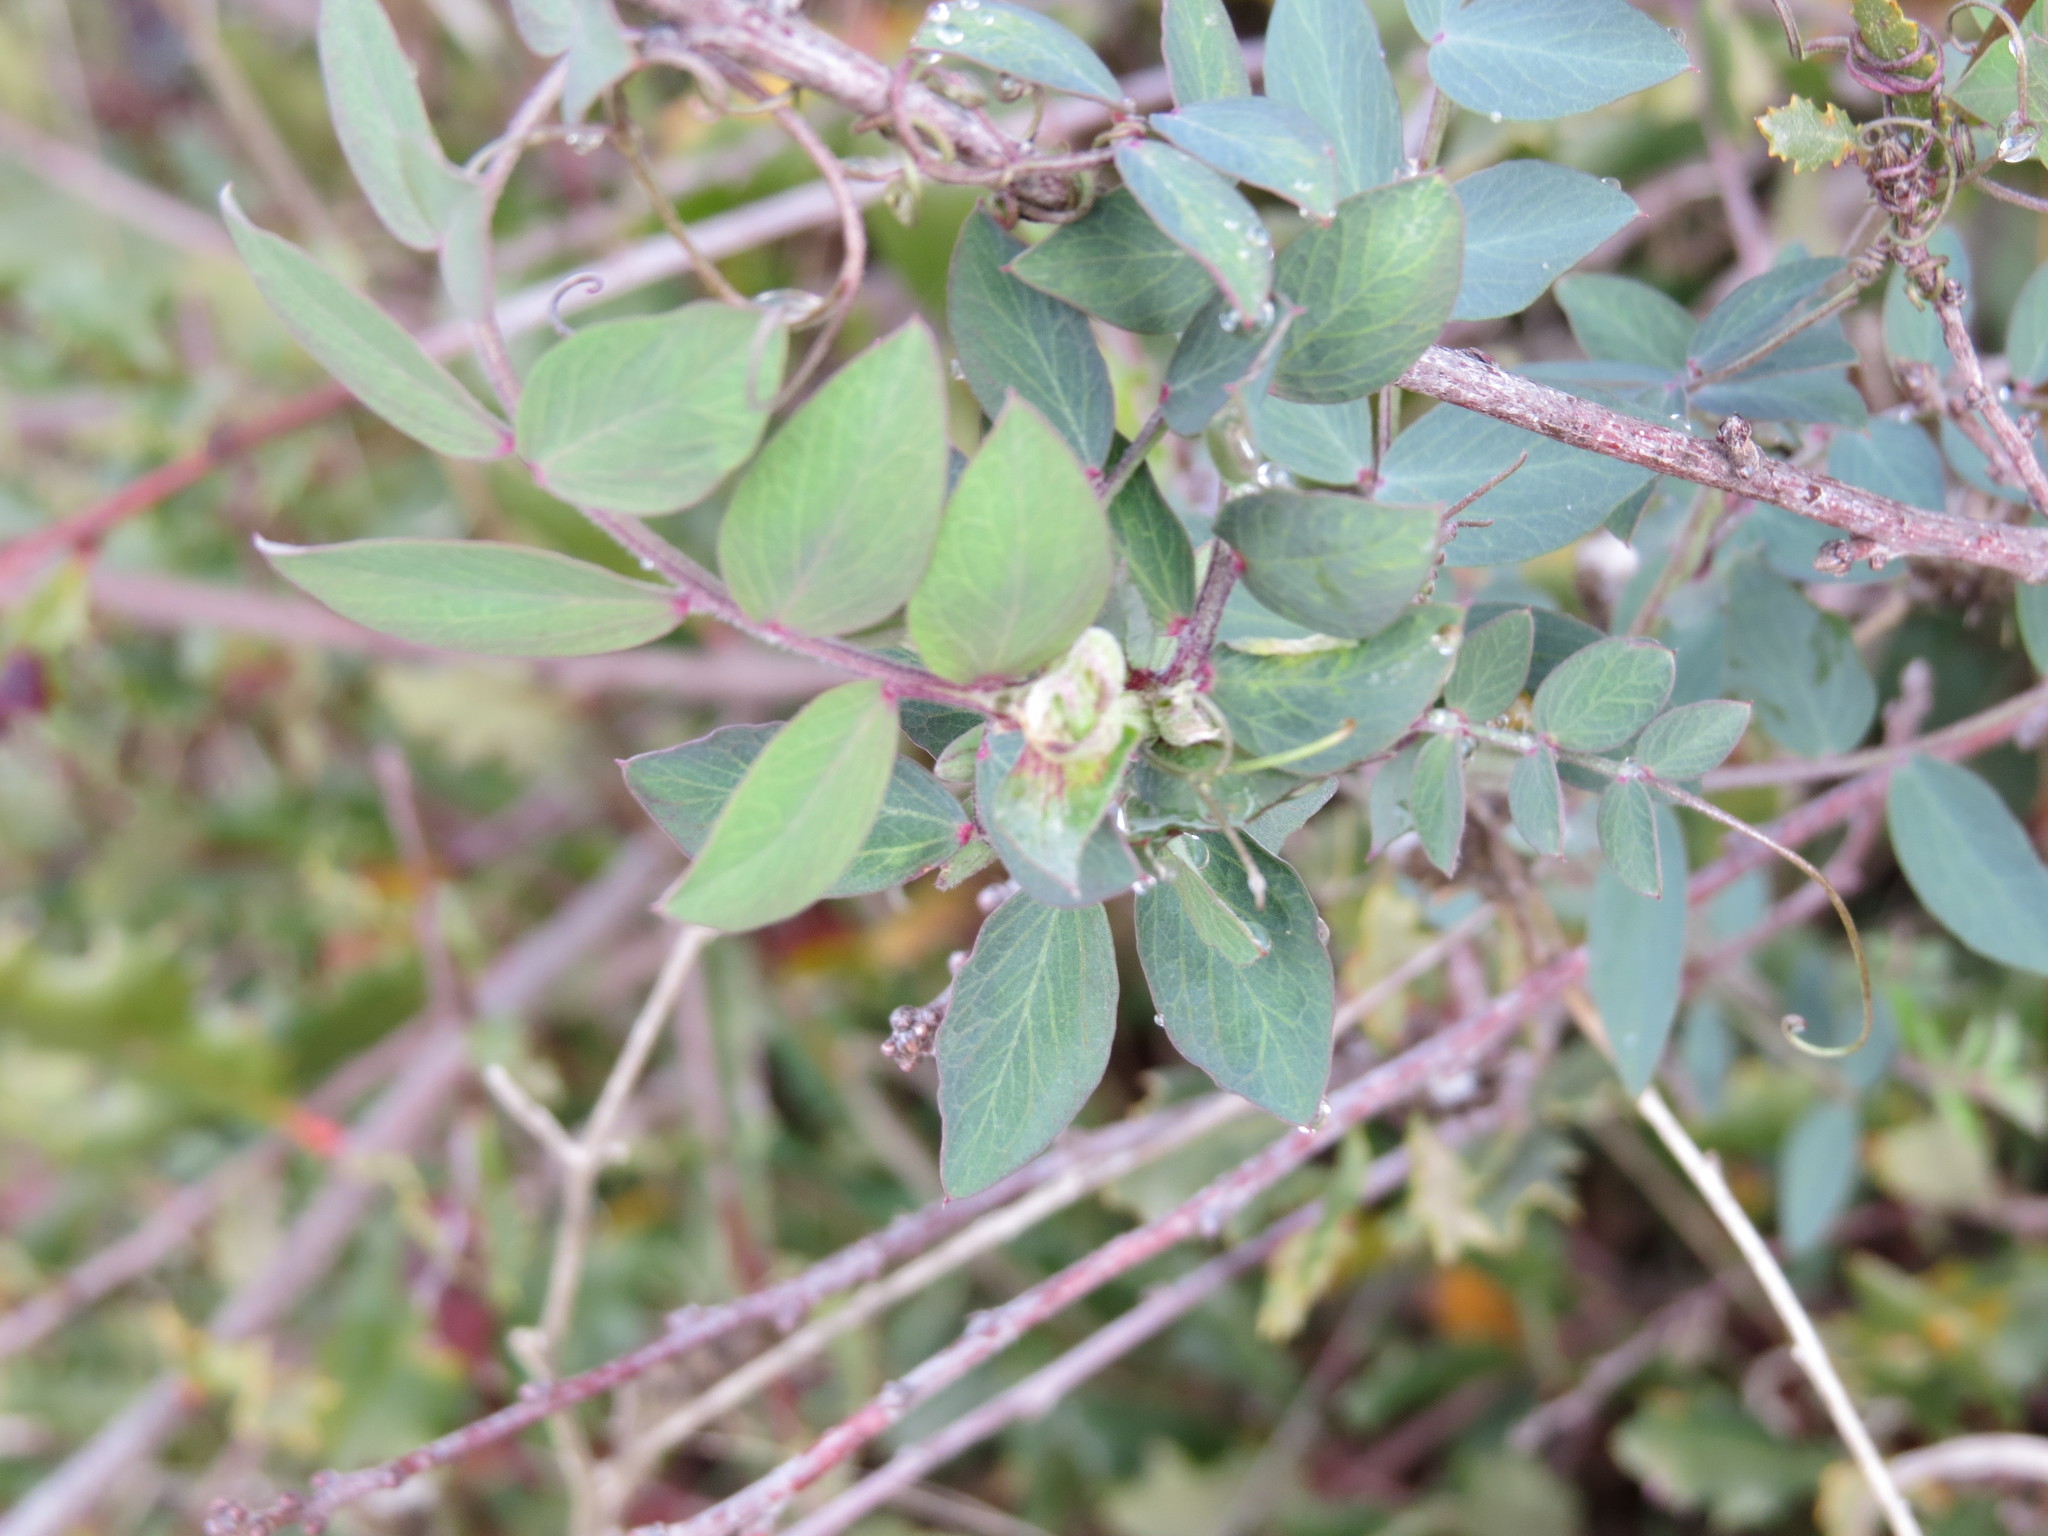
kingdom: Plantae
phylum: Tracheophyta
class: Magnoliopsida
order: Fabales
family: Fabaceae
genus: Lathyrus
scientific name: Lathyrus vestitus
